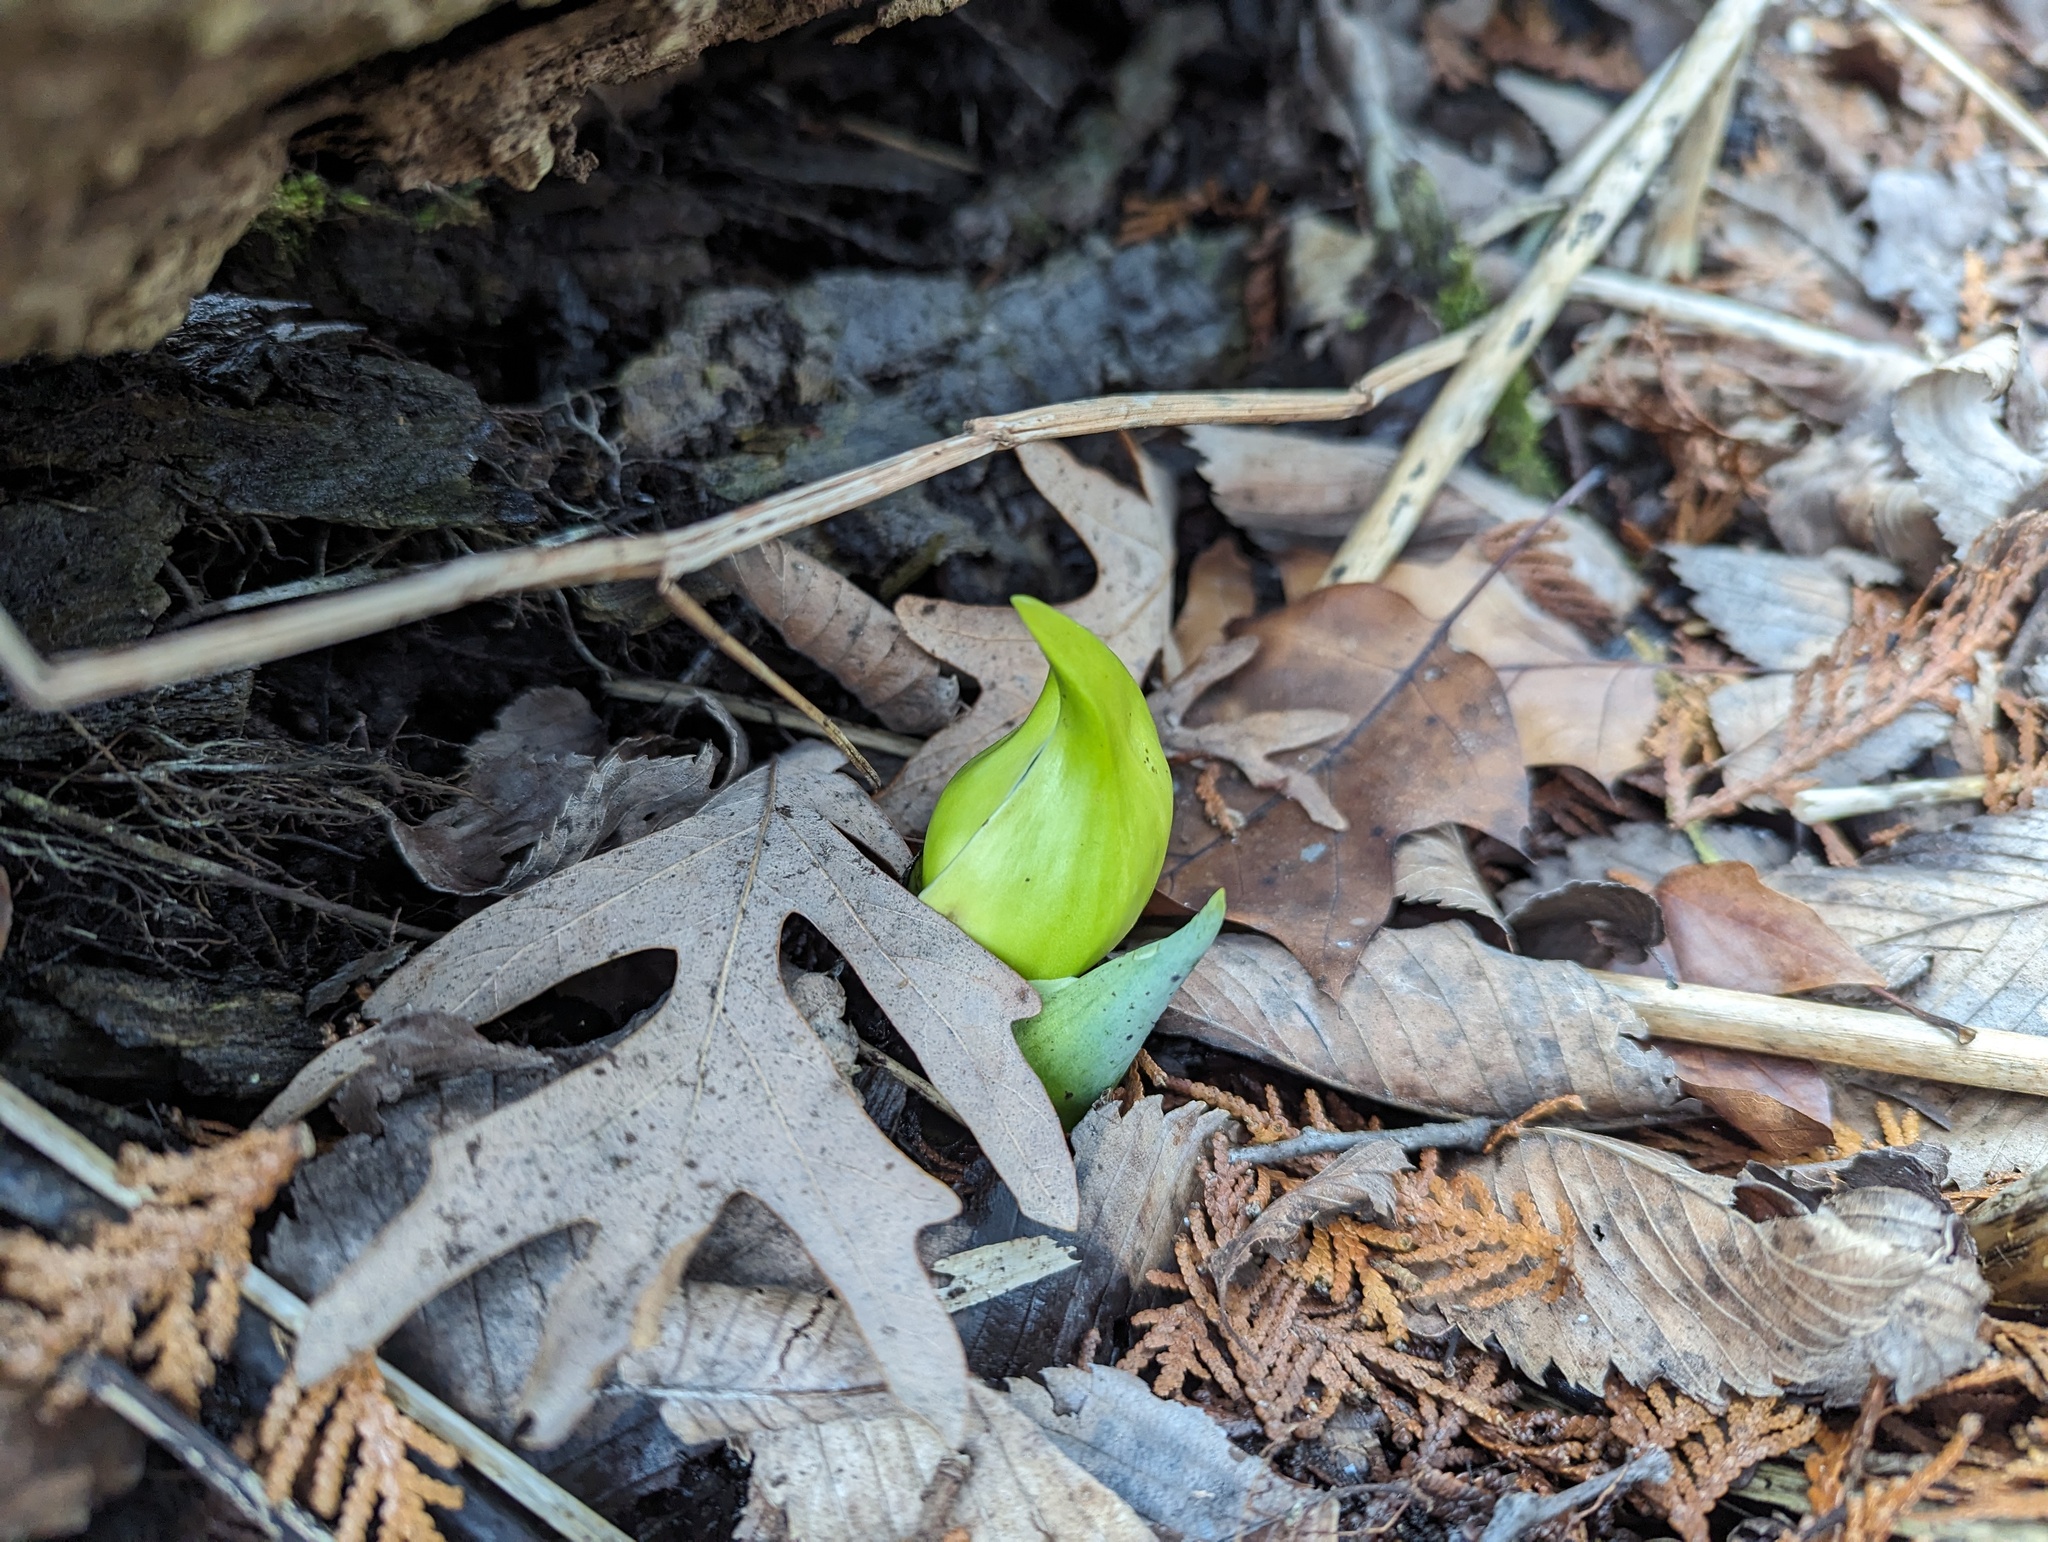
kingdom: Plantae
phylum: Tracheophyta
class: Liliopsida
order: Alismatales
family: Araceae
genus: Symplocarpus
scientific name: Symplocarpus foetidus
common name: Eastern skunk cabbage
